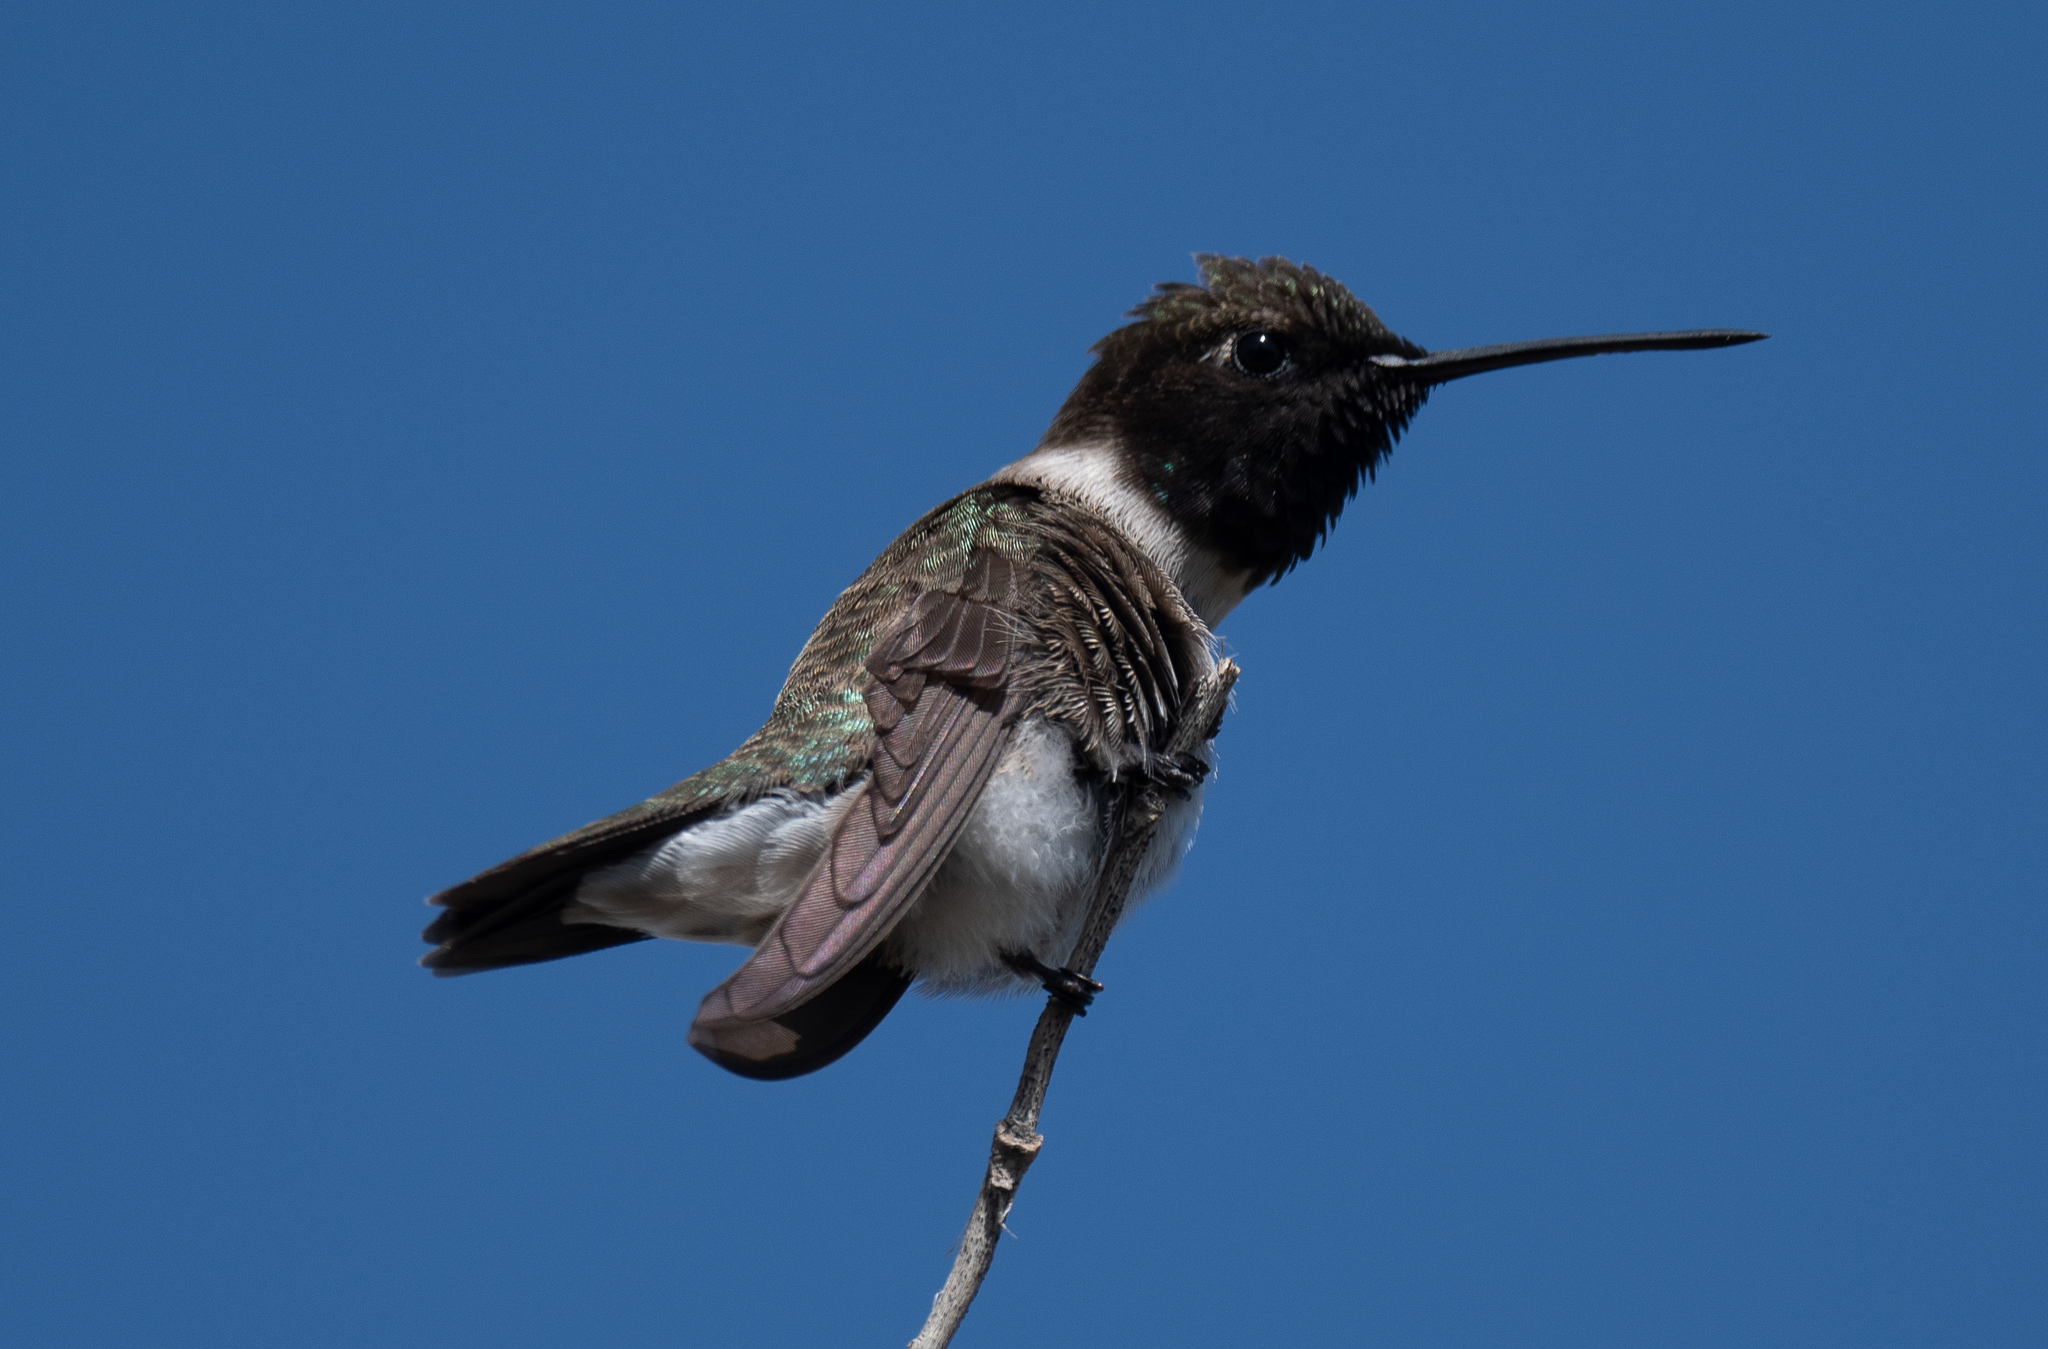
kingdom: Animalia
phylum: Chordata
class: Aves
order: Apodiformes
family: Trochilidae
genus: Archilochus
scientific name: Archilochus alexandri
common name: Black-chinned hummingbird
